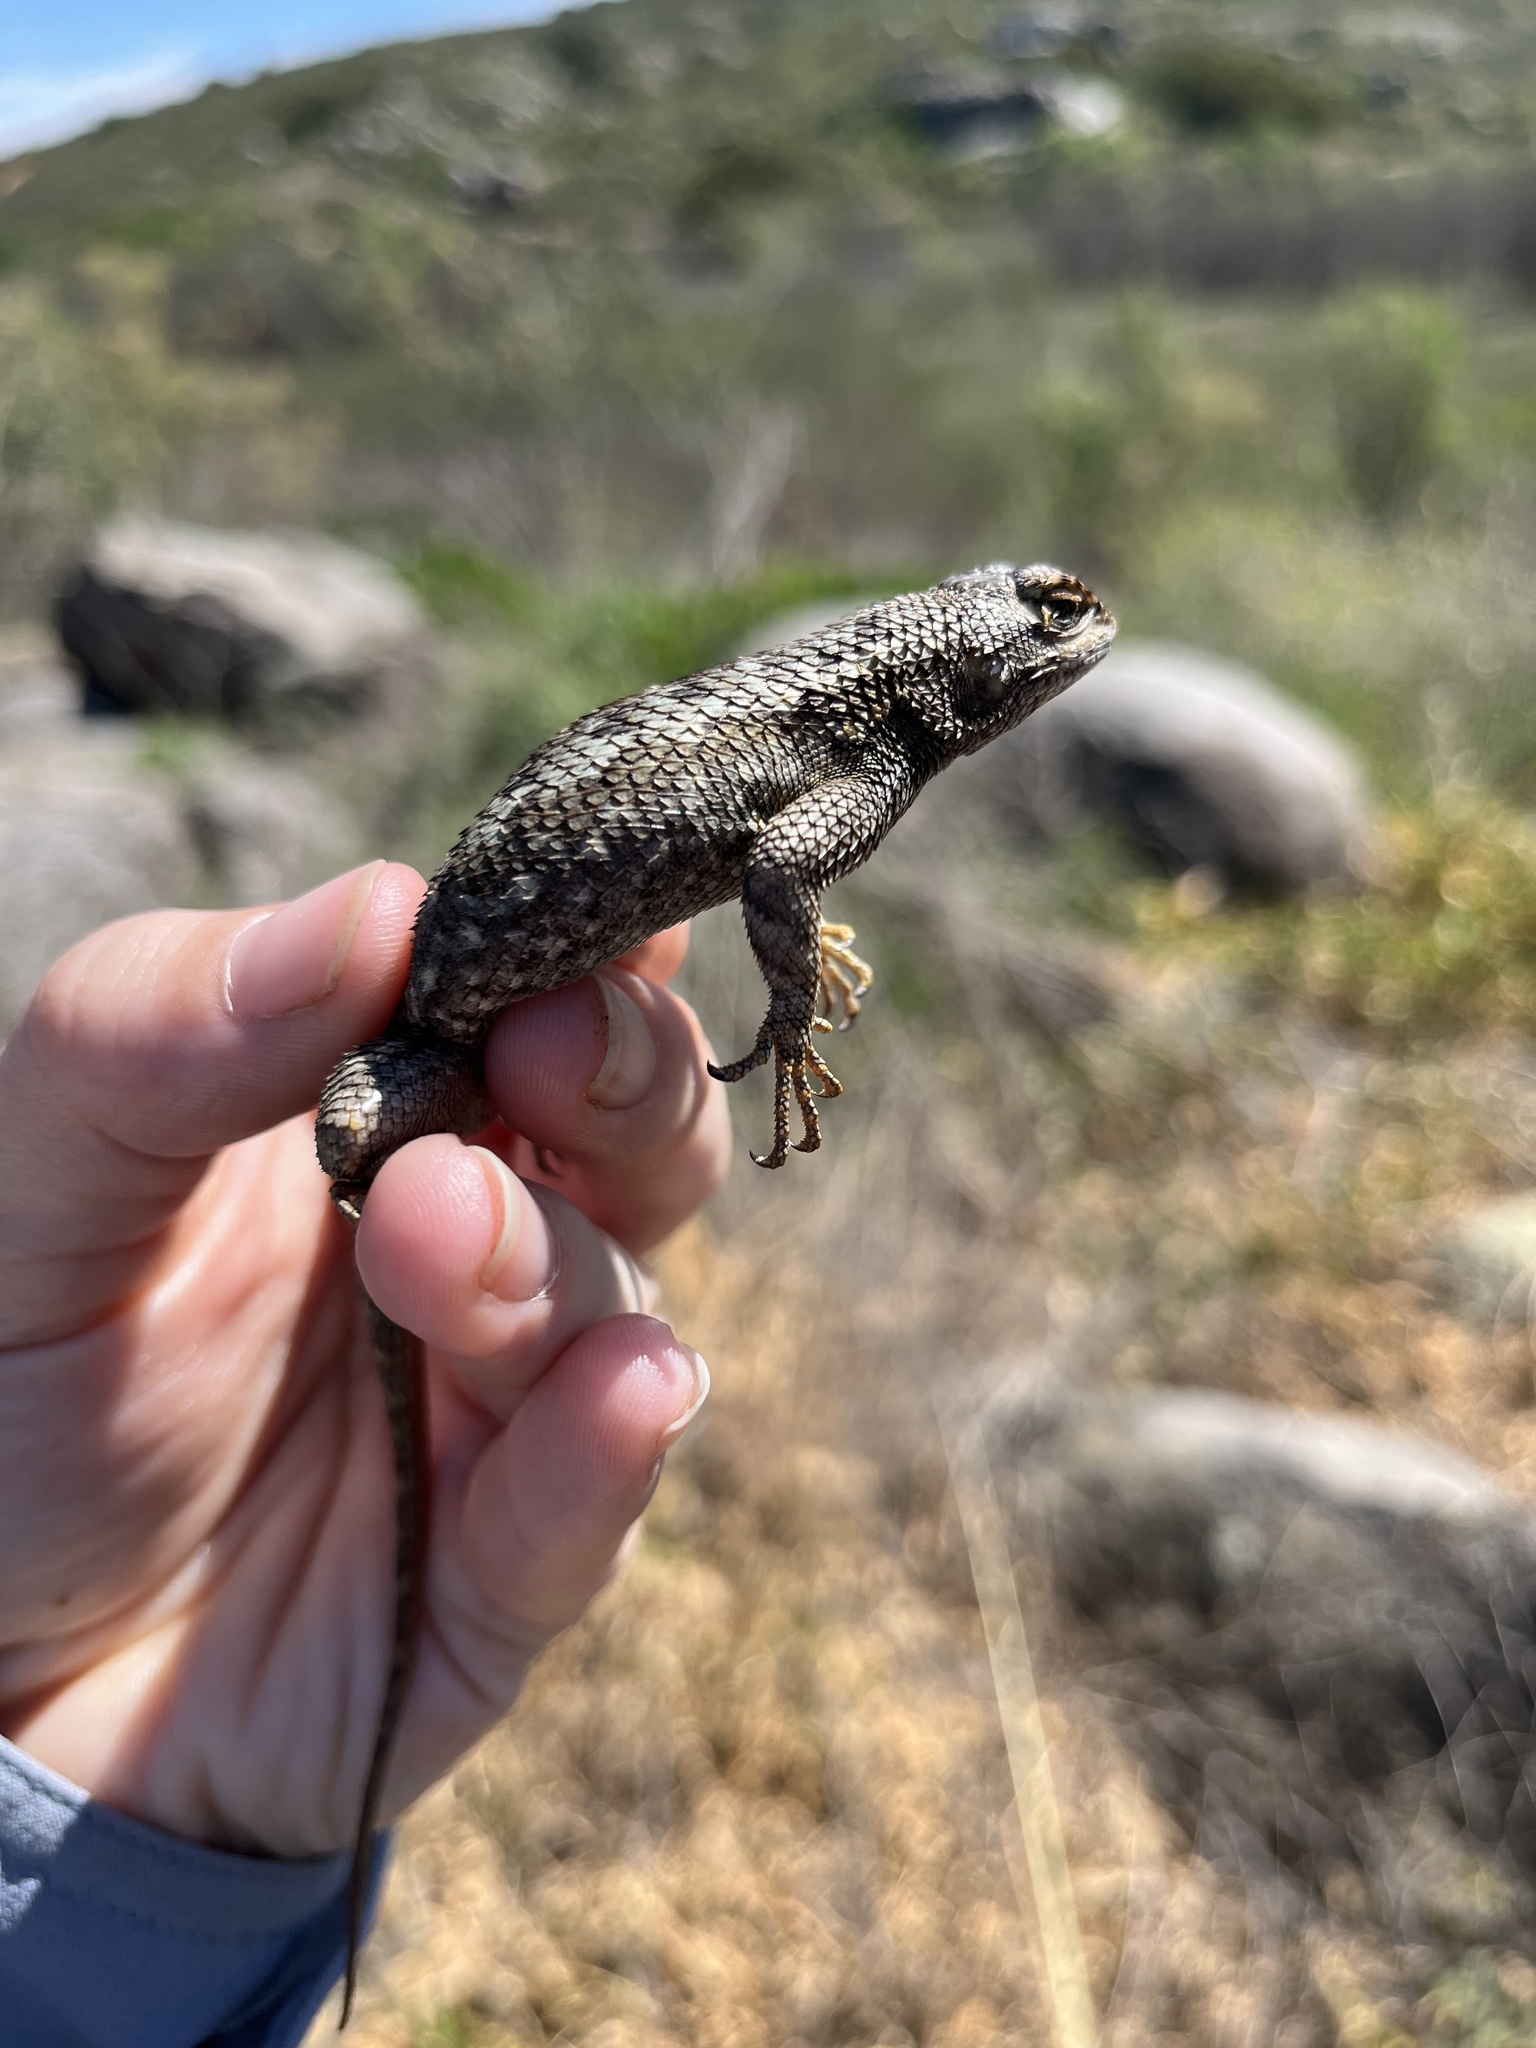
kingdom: Animalia
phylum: Chordata
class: Squamata
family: Phrynosomatidae
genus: Sceloporus
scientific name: Sceloporus occidentalis
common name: Western fence lizard
